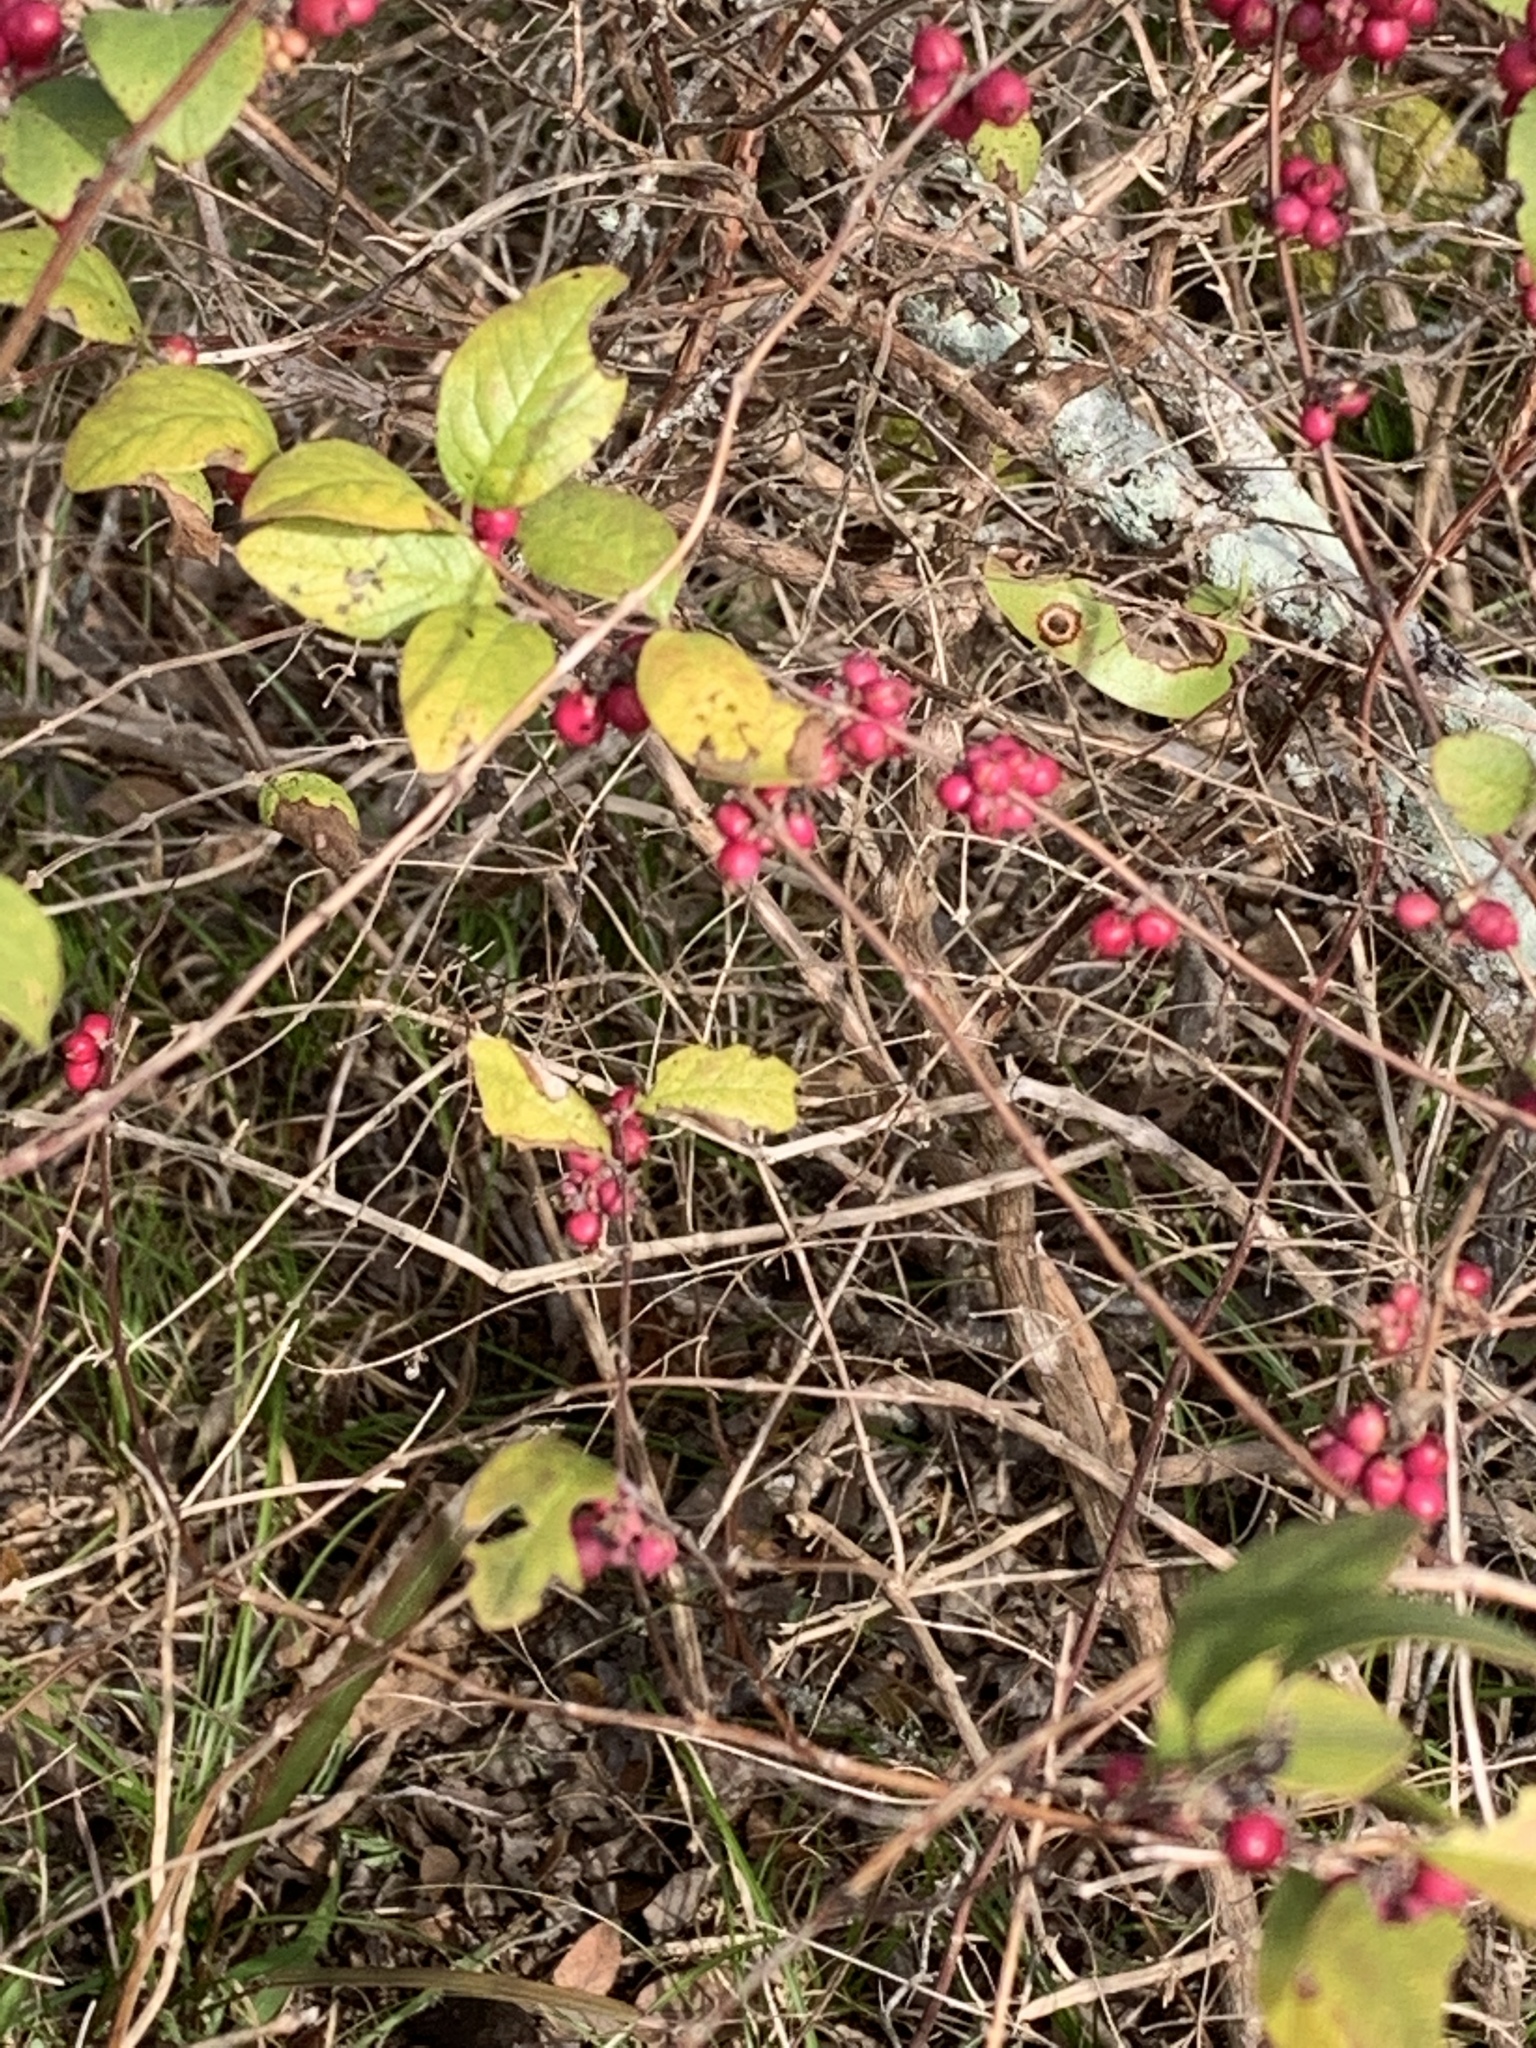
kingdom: Plantae
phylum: Tracheophyta
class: Magnoliopsida
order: Dipsacales
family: Caprifoliaceae
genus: Symphoricarpos
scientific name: Symphoricarpos orbiculatus
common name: Coralberry
